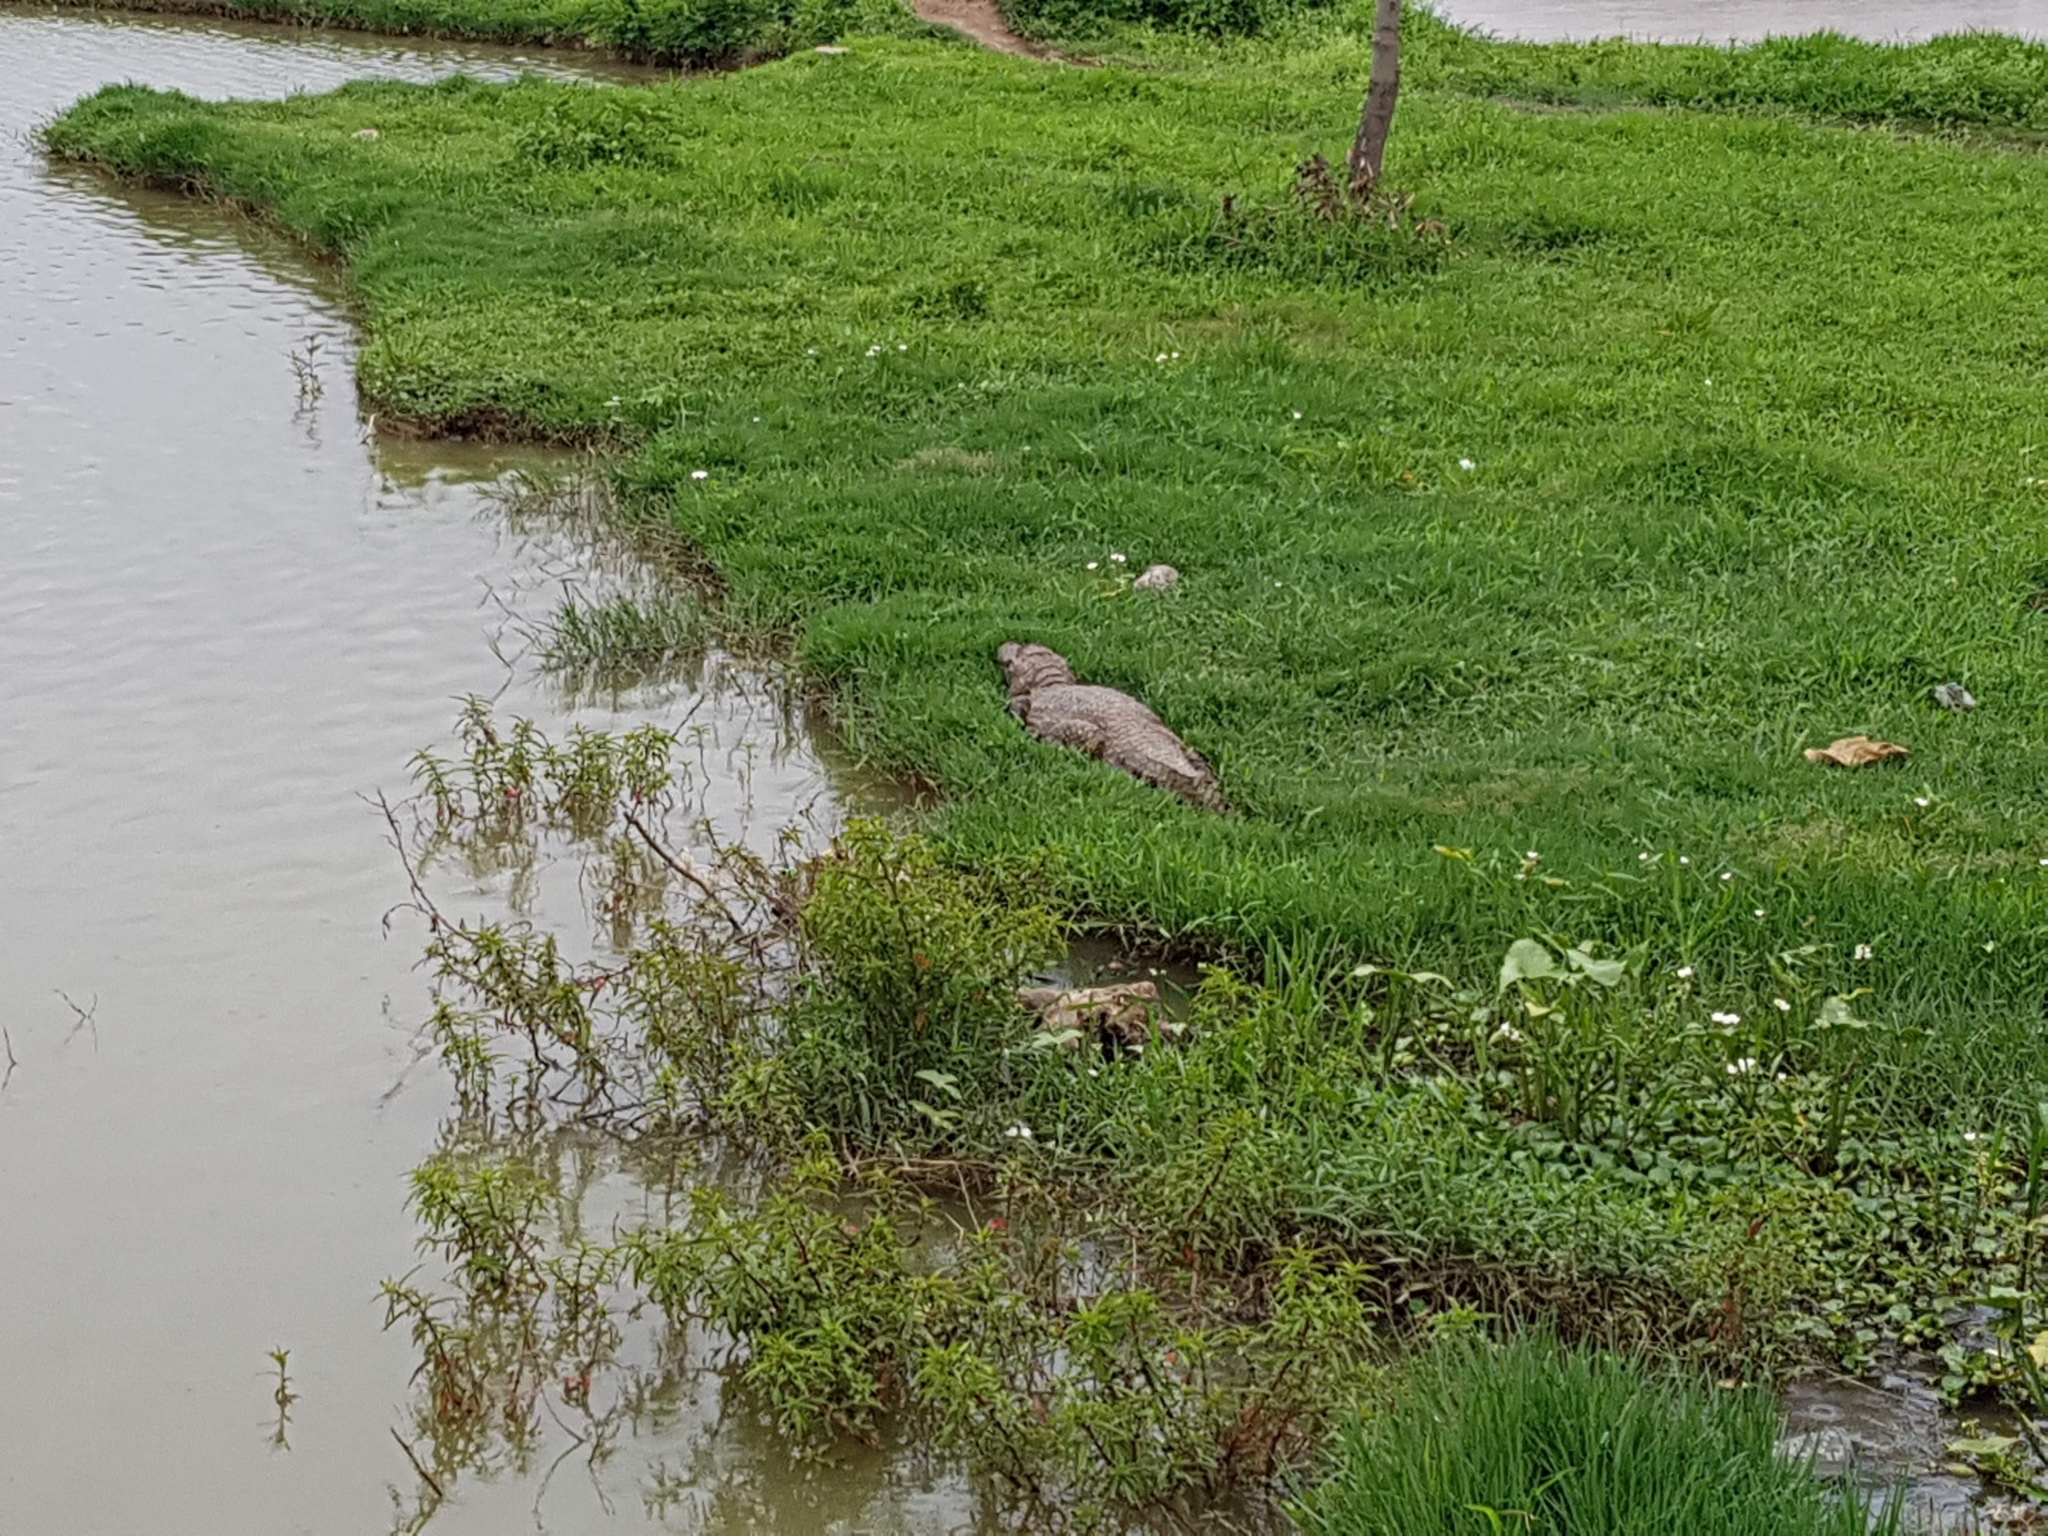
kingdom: Animalia
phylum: Chordata
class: Crocodylia
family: Alligatoridae
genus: Caiman
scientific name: Caiman latirostris
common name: Broad-snouted caiman
